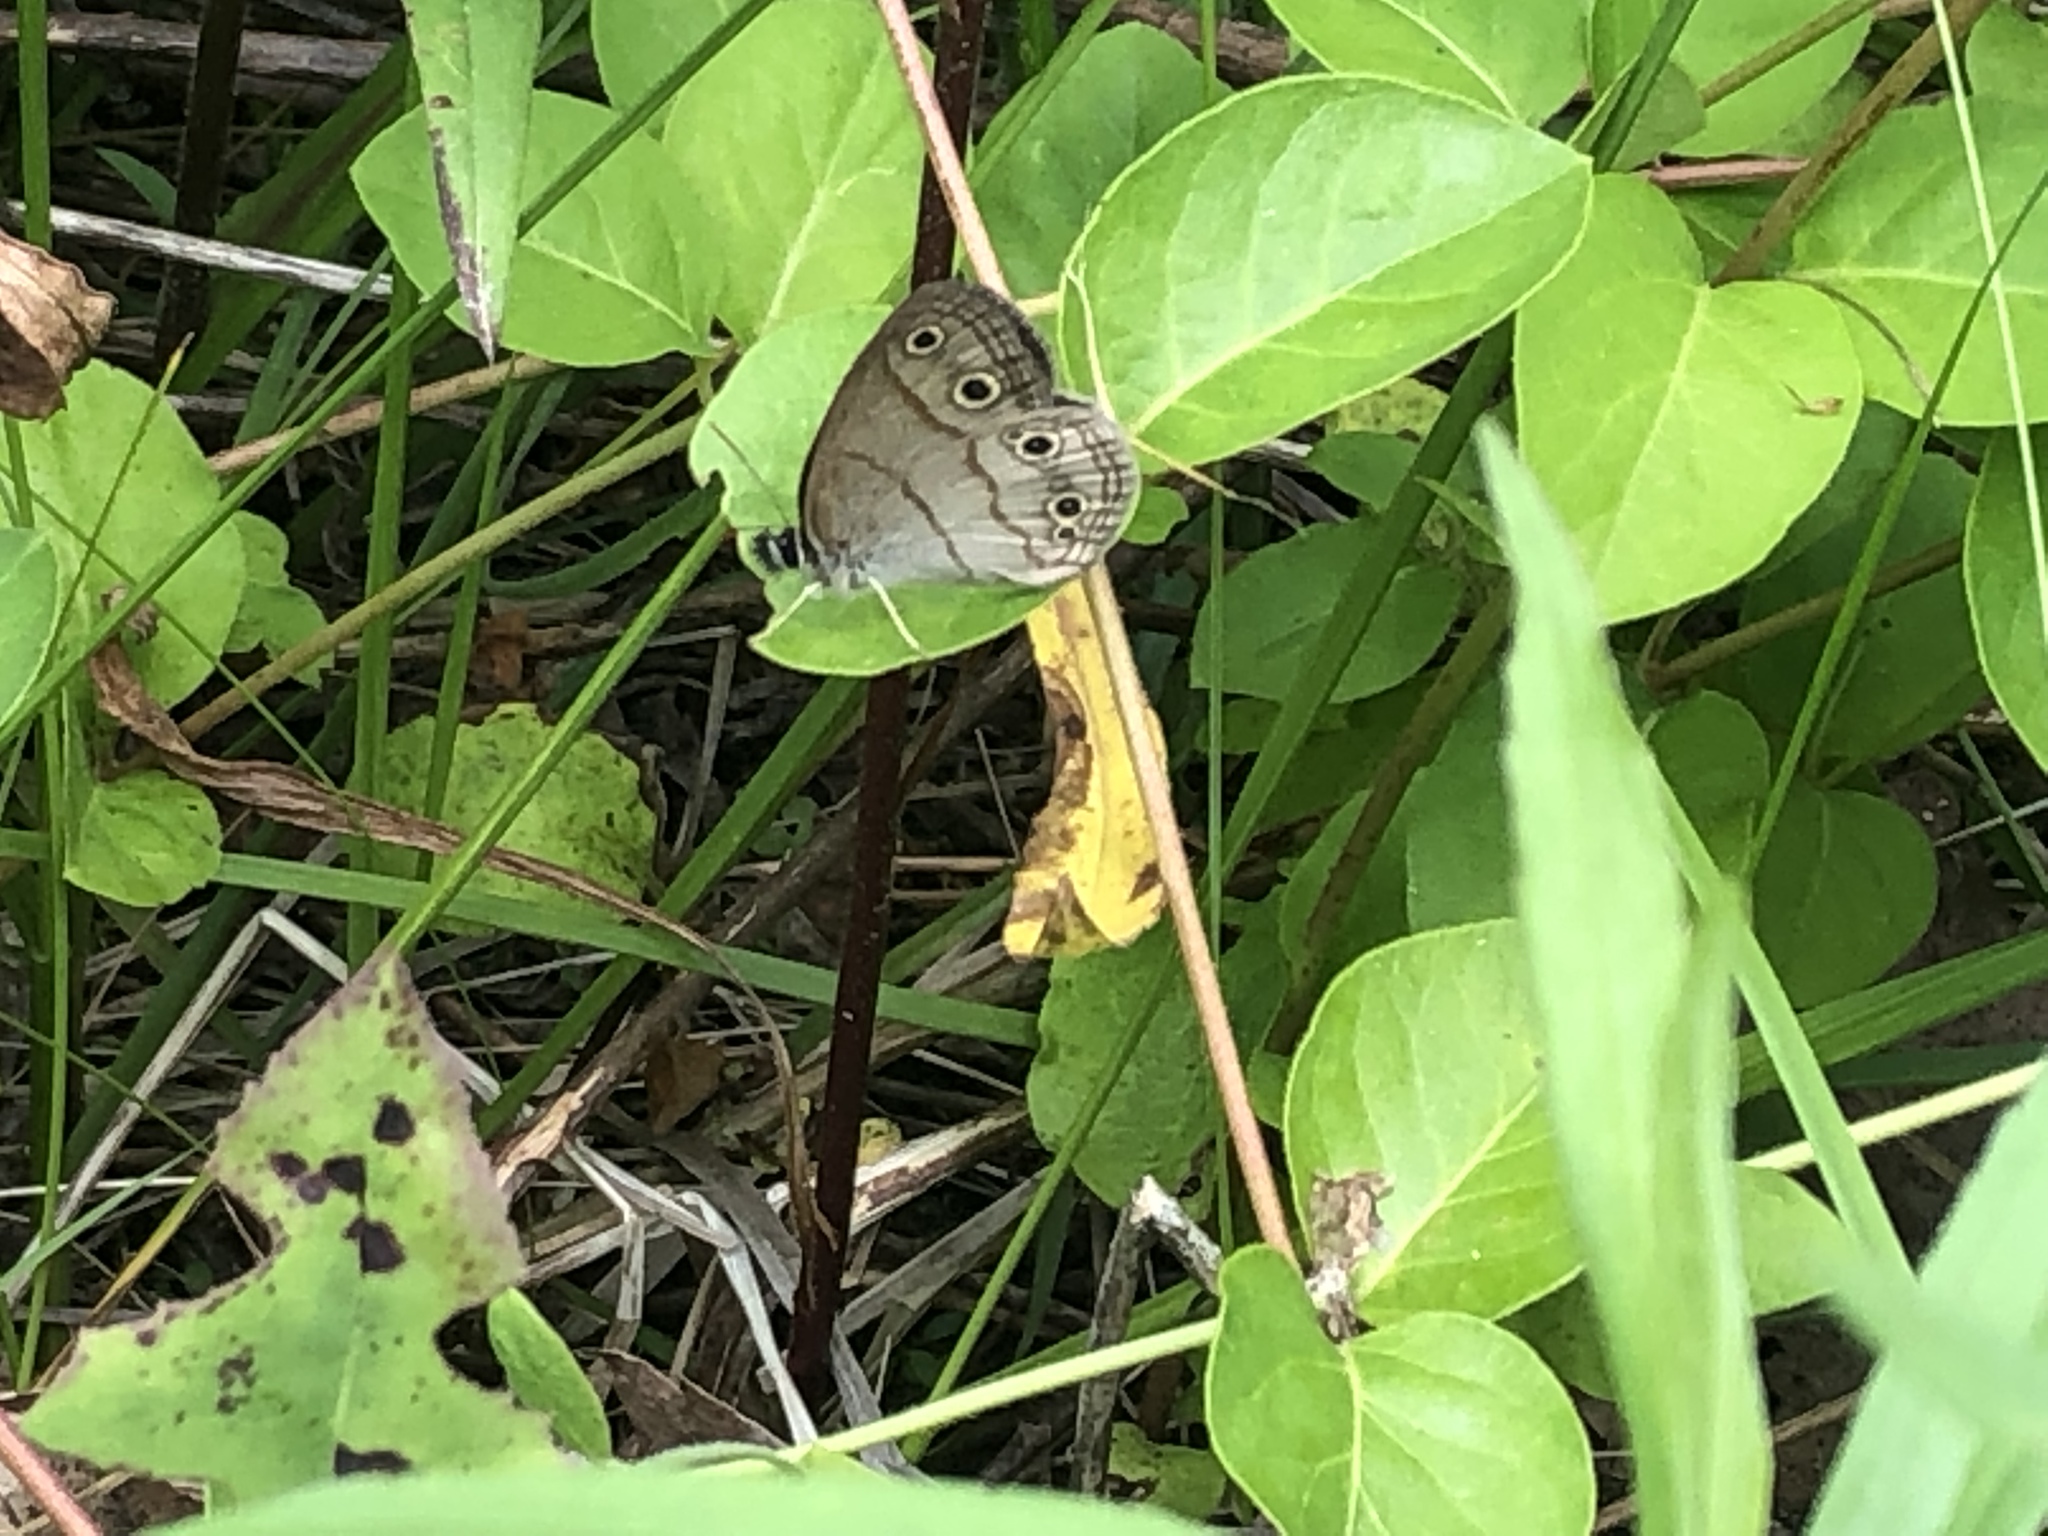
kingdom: Animalia
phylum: Arthropoda
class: Insecta
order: Lepidoptera
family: Nymphalidae
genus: Euptychia
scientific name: Euptychia cymela
